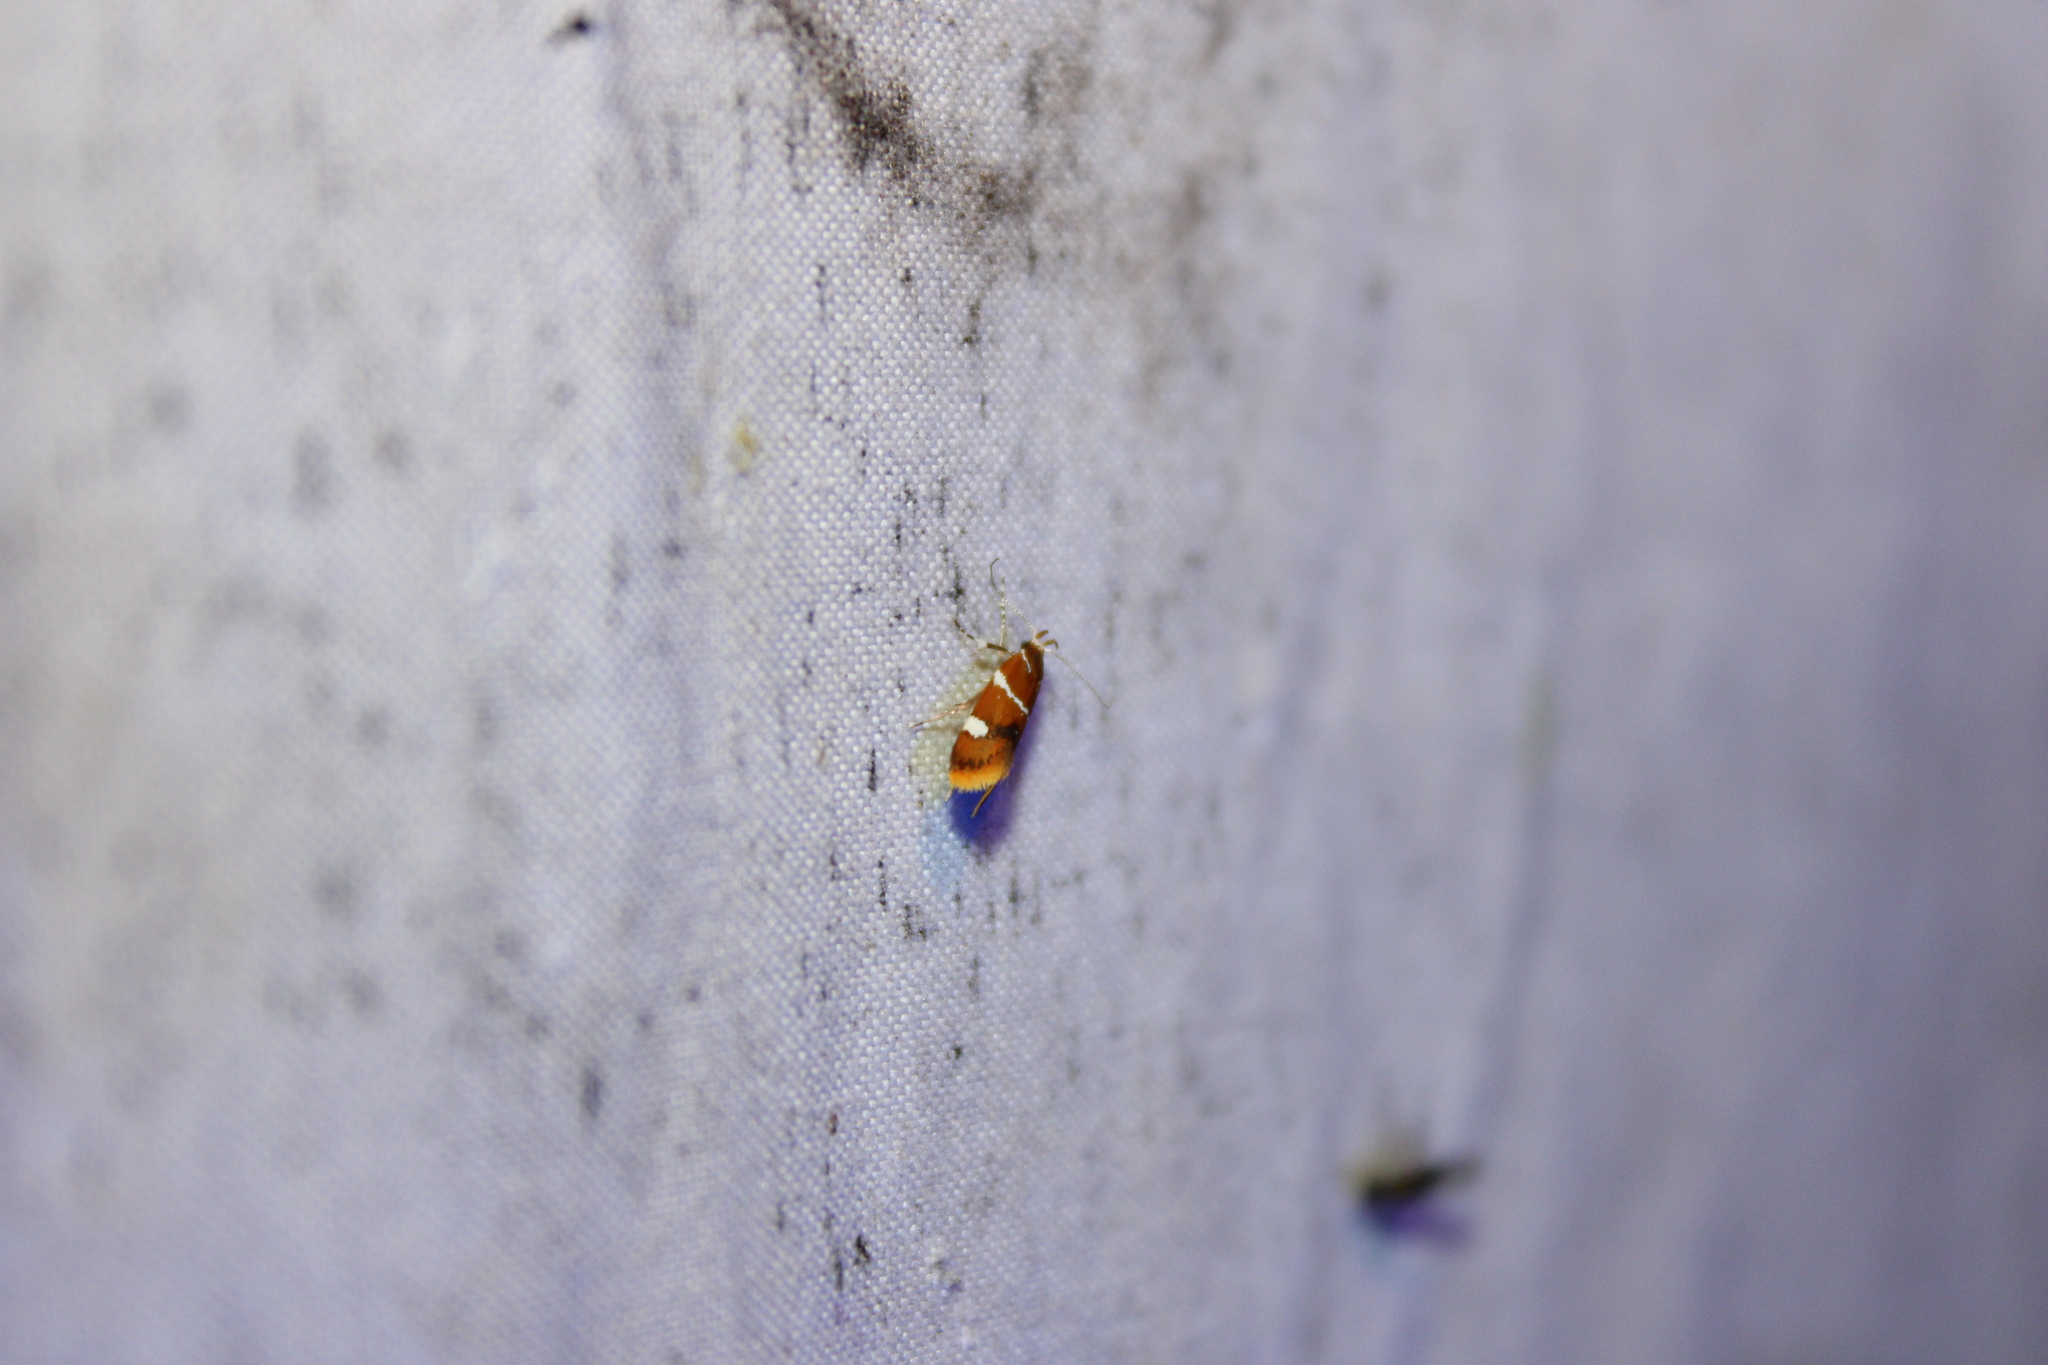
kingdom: Animalia
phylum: Arthropoda
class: Insecta
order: Lepidoptera
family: Oecophoridae
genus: Promalactis
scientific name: Promalactis suzukiella
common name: Moth
